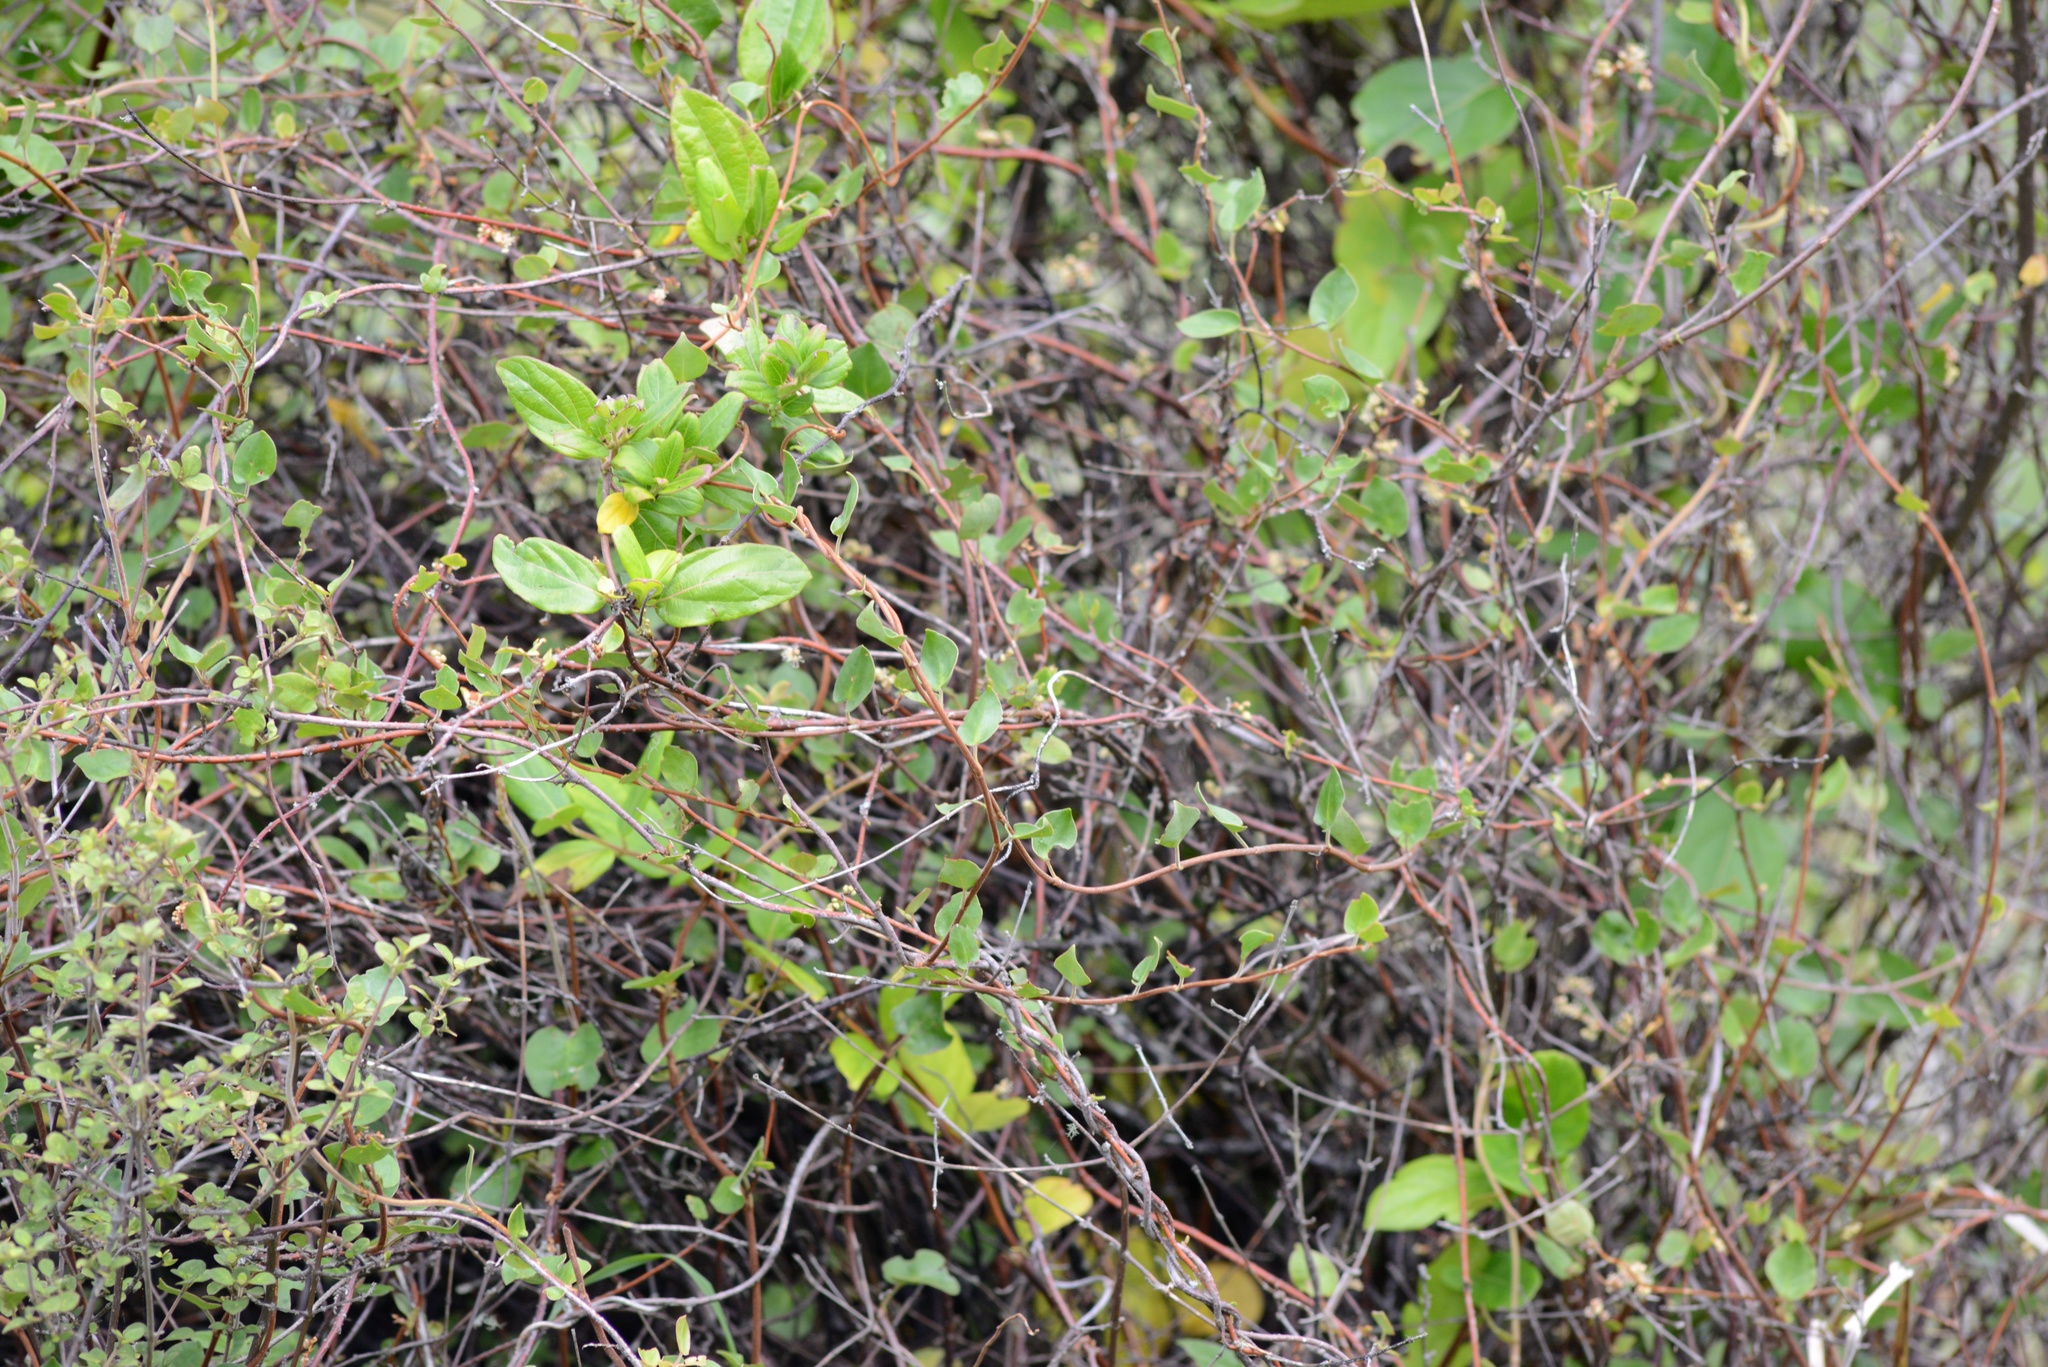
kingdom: Plantae
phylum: Tracheophyta
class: Magnoliopsida
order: Dipsacales
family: Caprifoliaceae
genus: Lonicera
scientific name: Lonicera japonica
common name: Japanese honeysuckle
